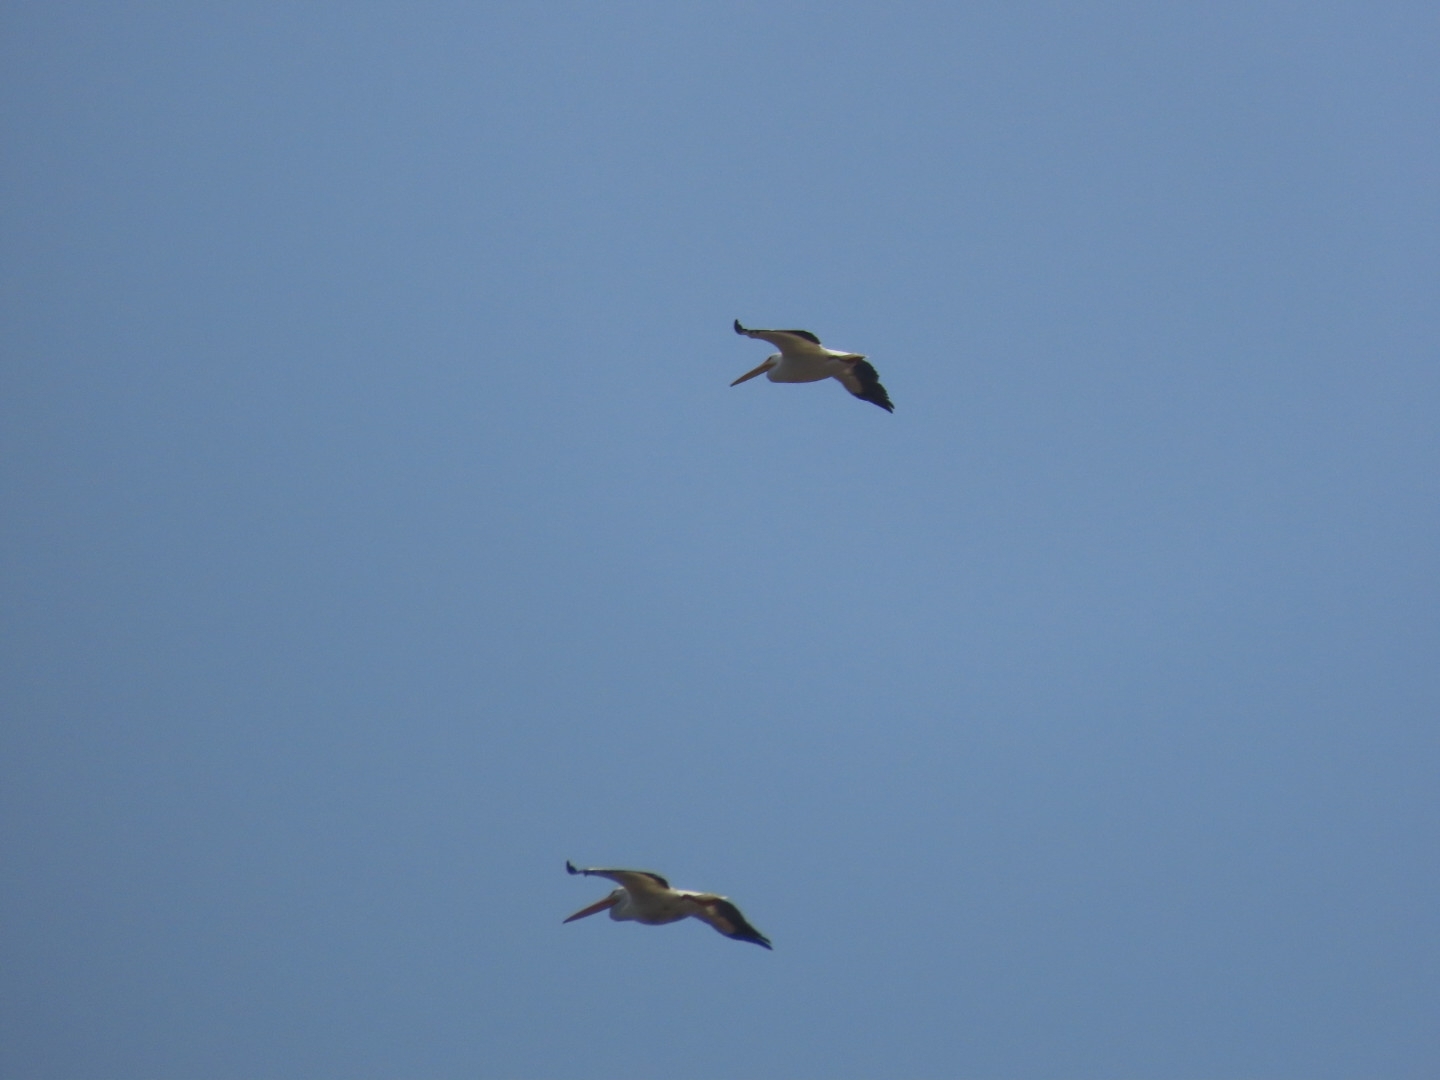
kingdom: Animalia
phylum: Chordata
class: Aves
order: Pelecaniformes
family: Pelecanidae
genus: Pelecanus
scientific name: Pelecanus erythrorhynchos
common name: American white pelican
